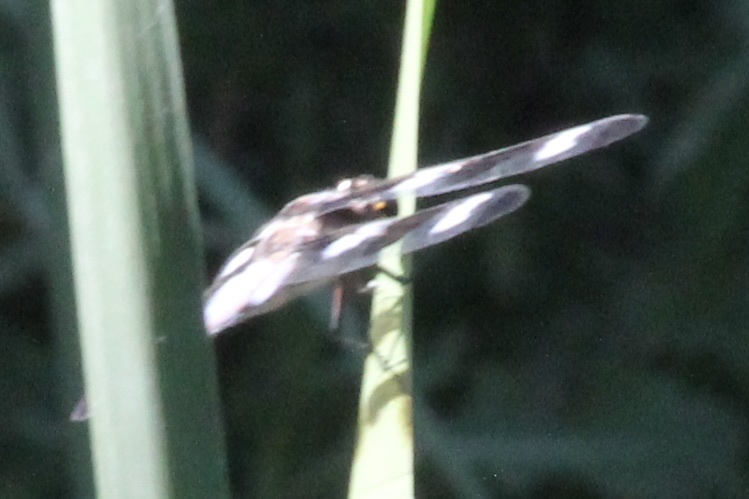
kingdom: Animalia
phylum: Arthropoda
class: Insecta
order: Odonata
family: Libellulidae
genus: Libellula
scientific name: Libellula pulchella
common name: Twelve-spotted skimmer
